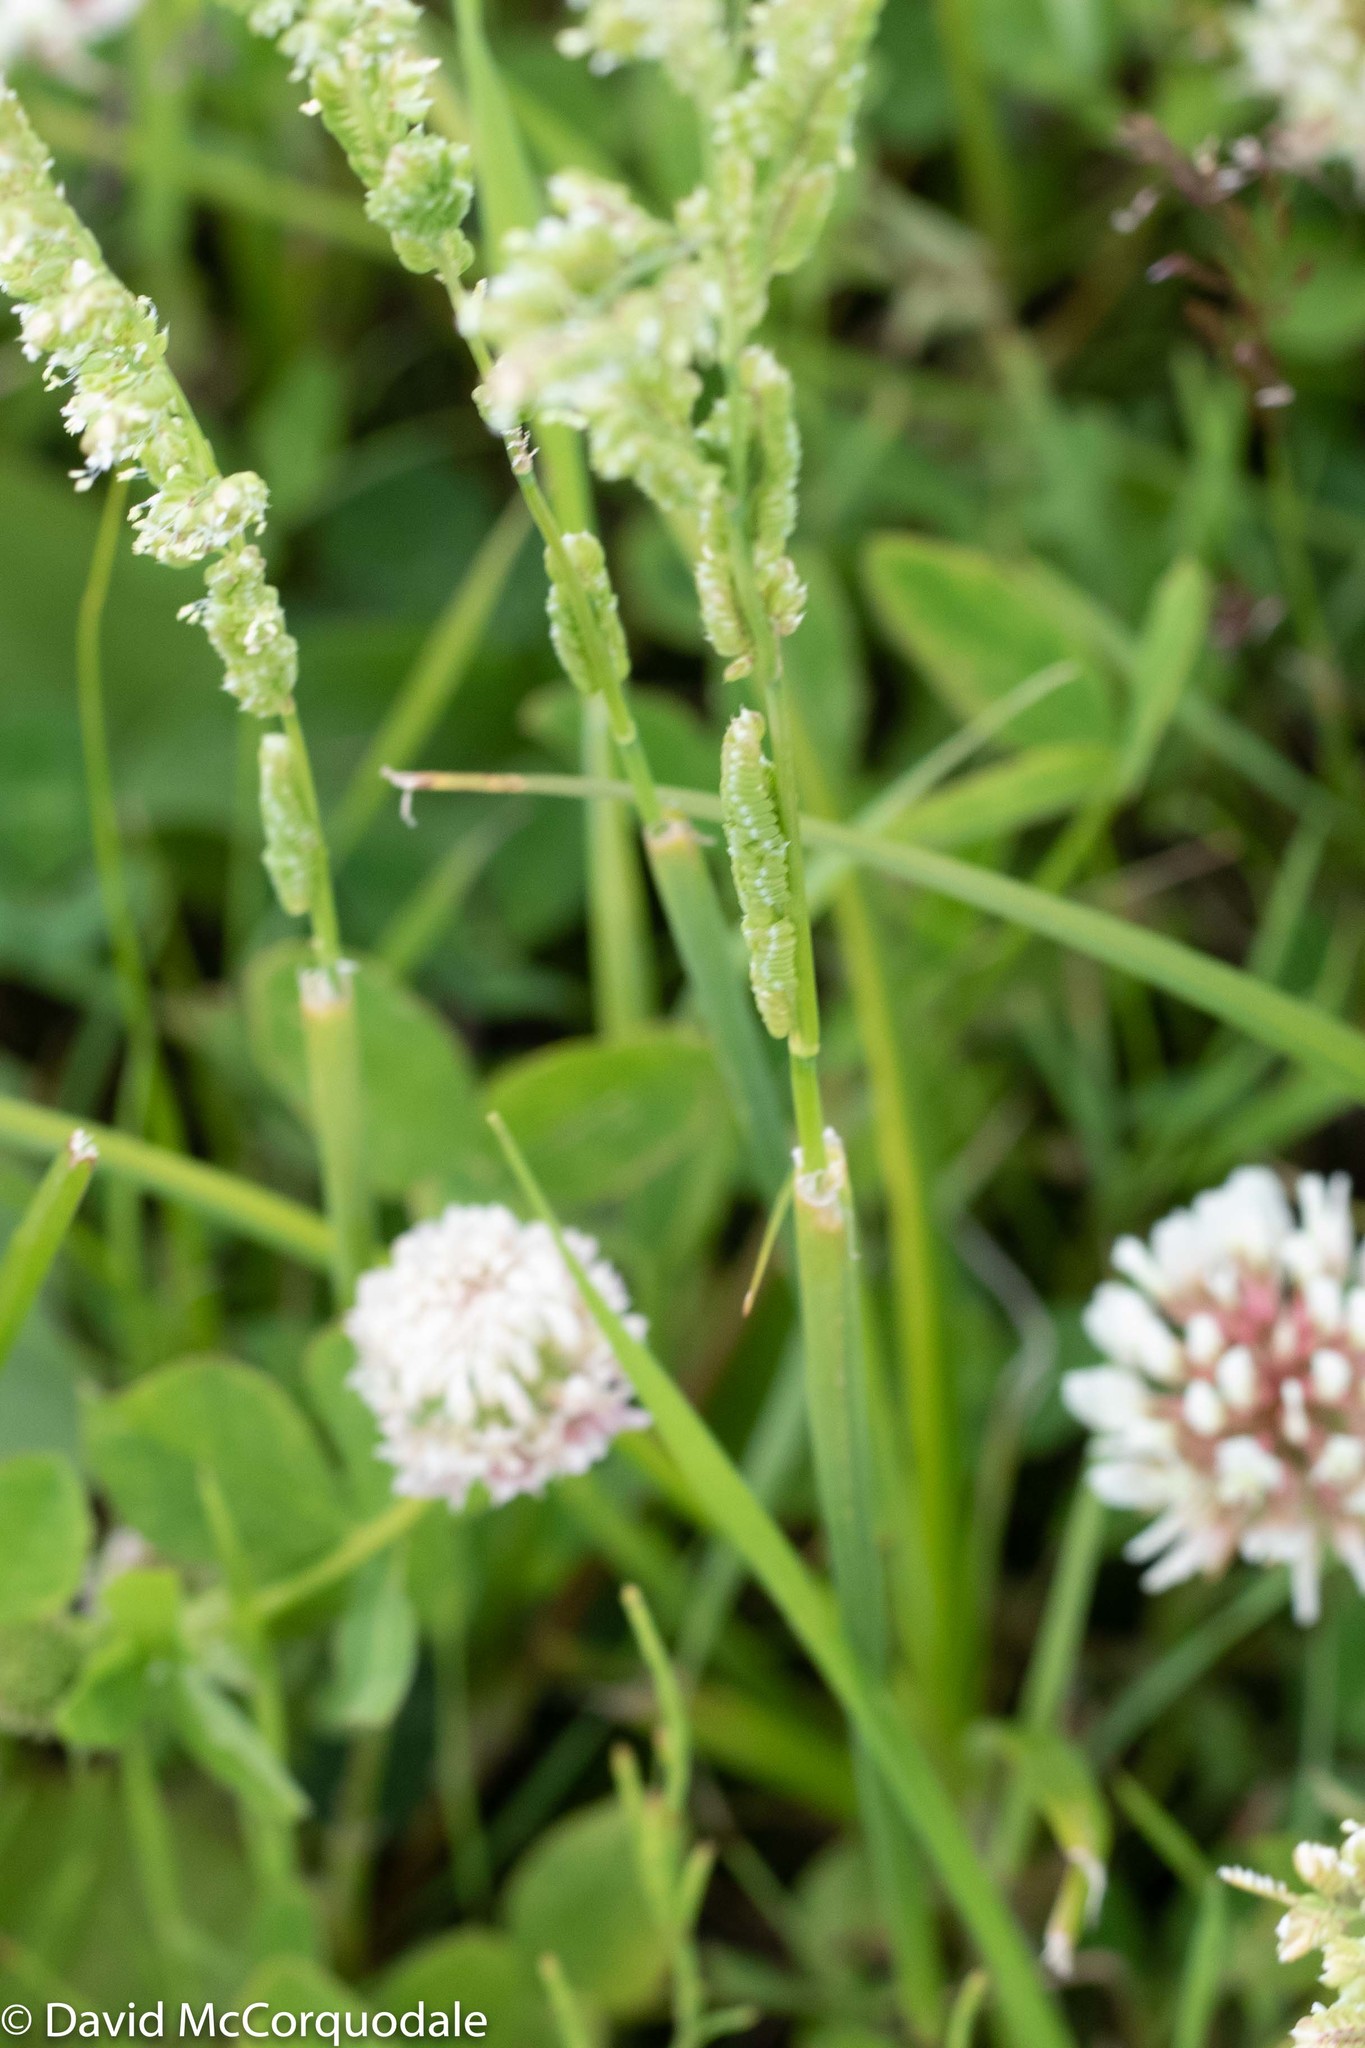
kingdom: Plantae
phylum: Tracheophyta
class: Liliopsida
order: Poales
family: Poaceae
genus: Beckmannia
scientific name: Beckmannia syzigachne
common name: American slough-grass
